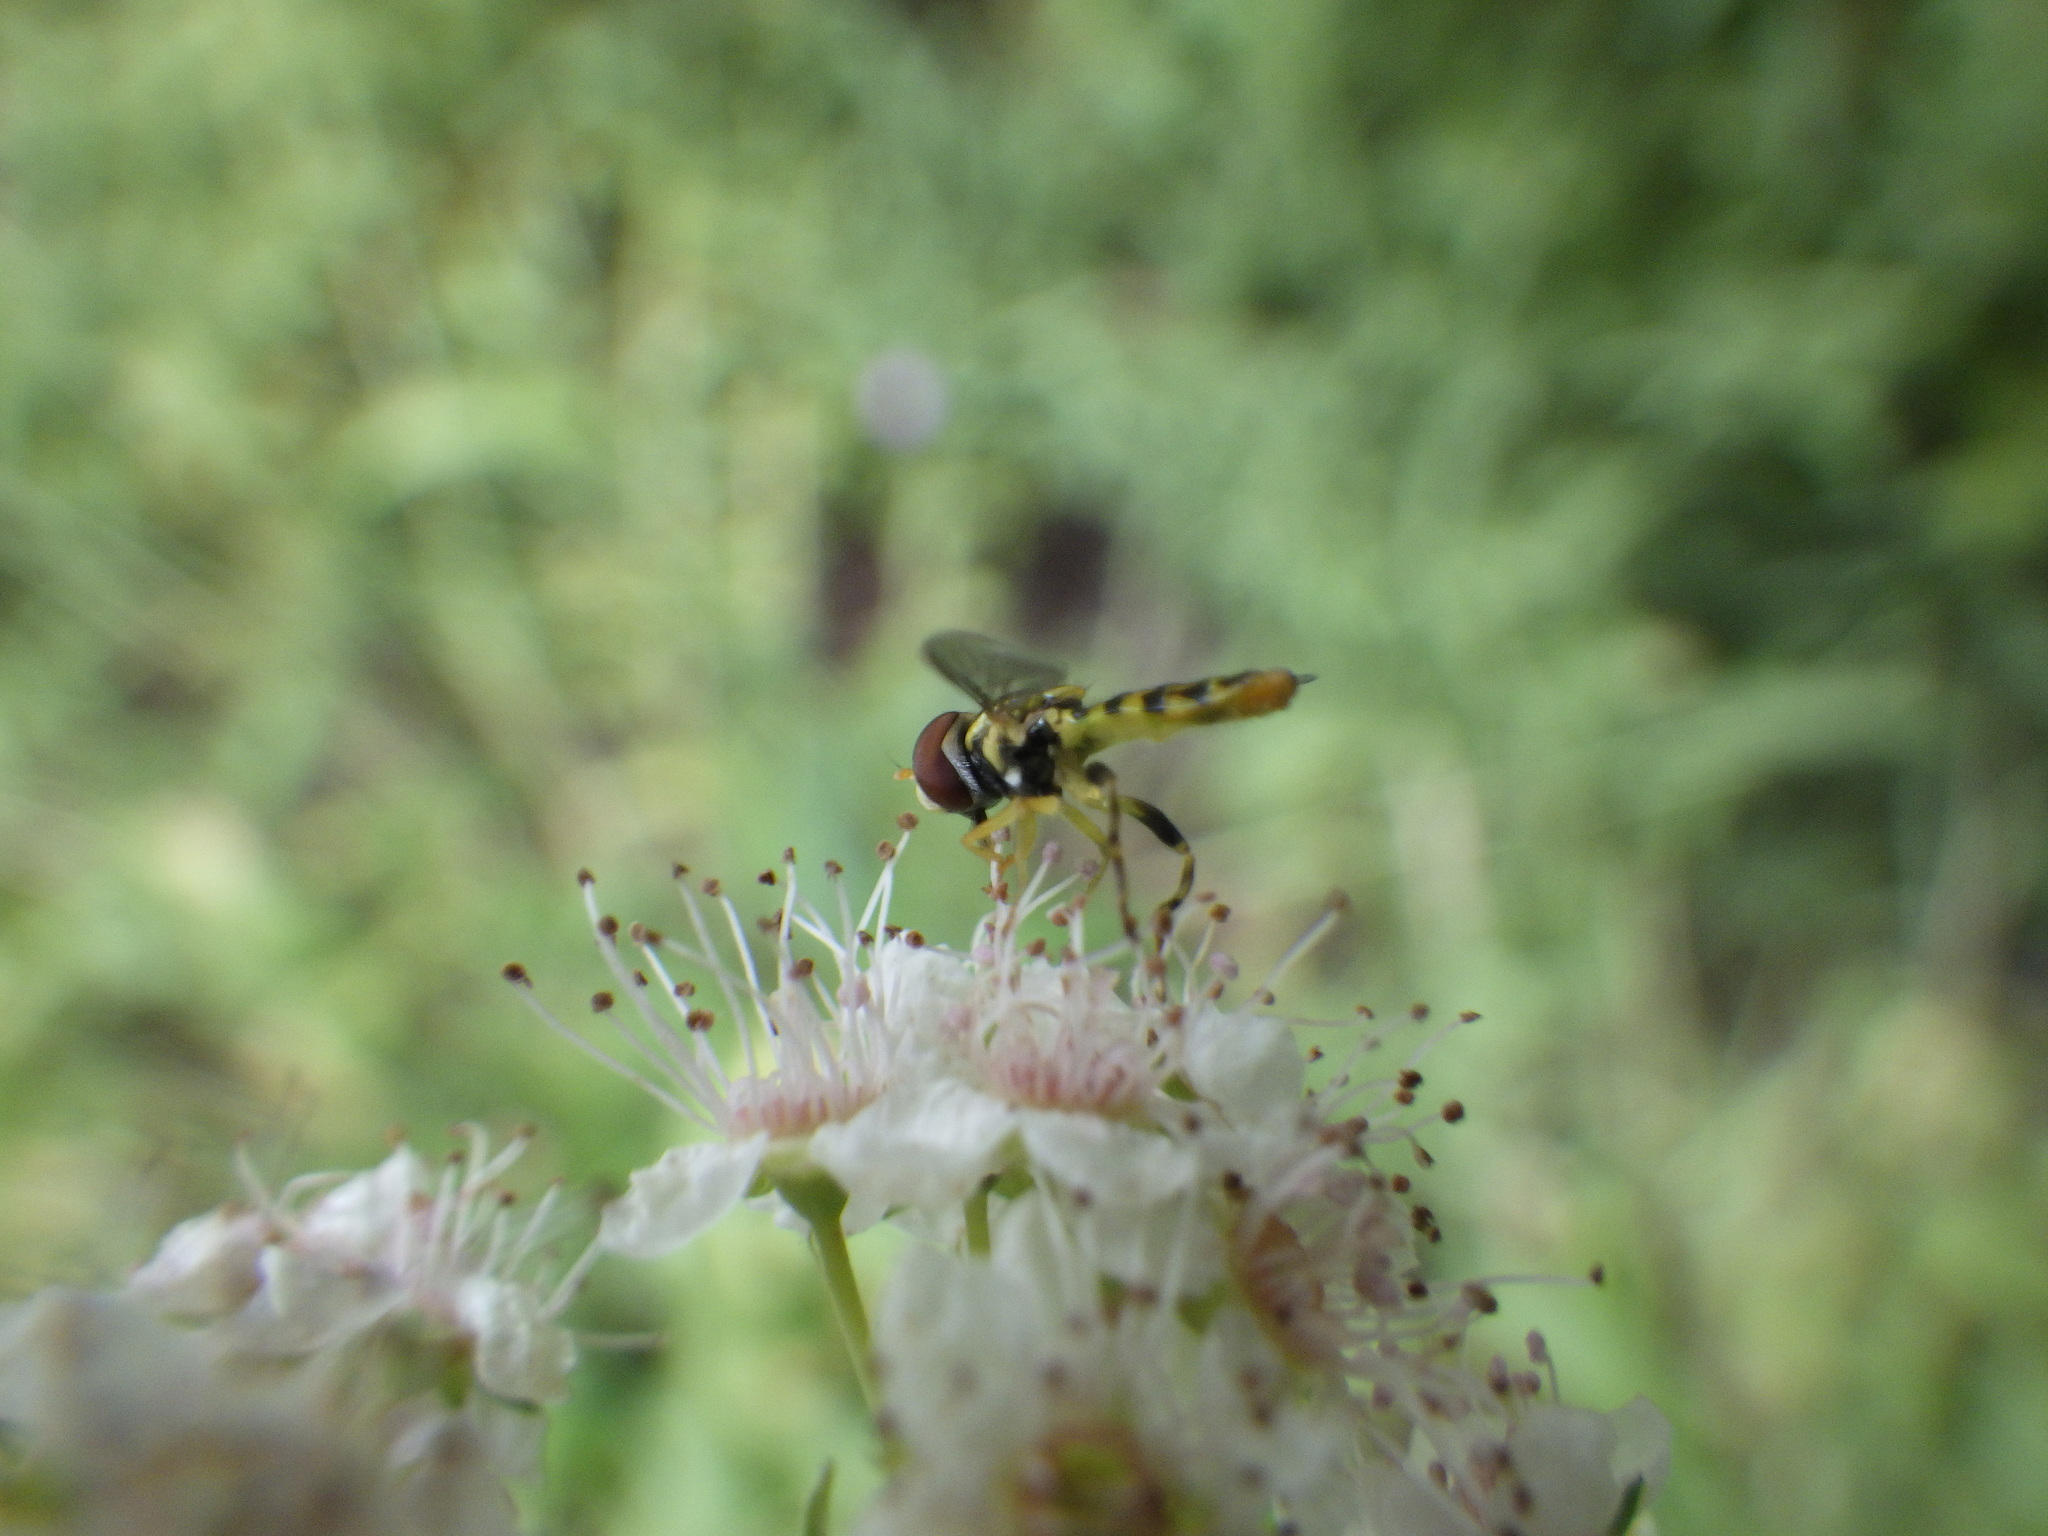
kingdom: Animalia
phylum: Arthropoda
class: Insecta
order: Diptera
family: Syrphidae
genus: Toxomerus
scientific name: Toxomerus geminatus
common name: Eastern calligrapher
